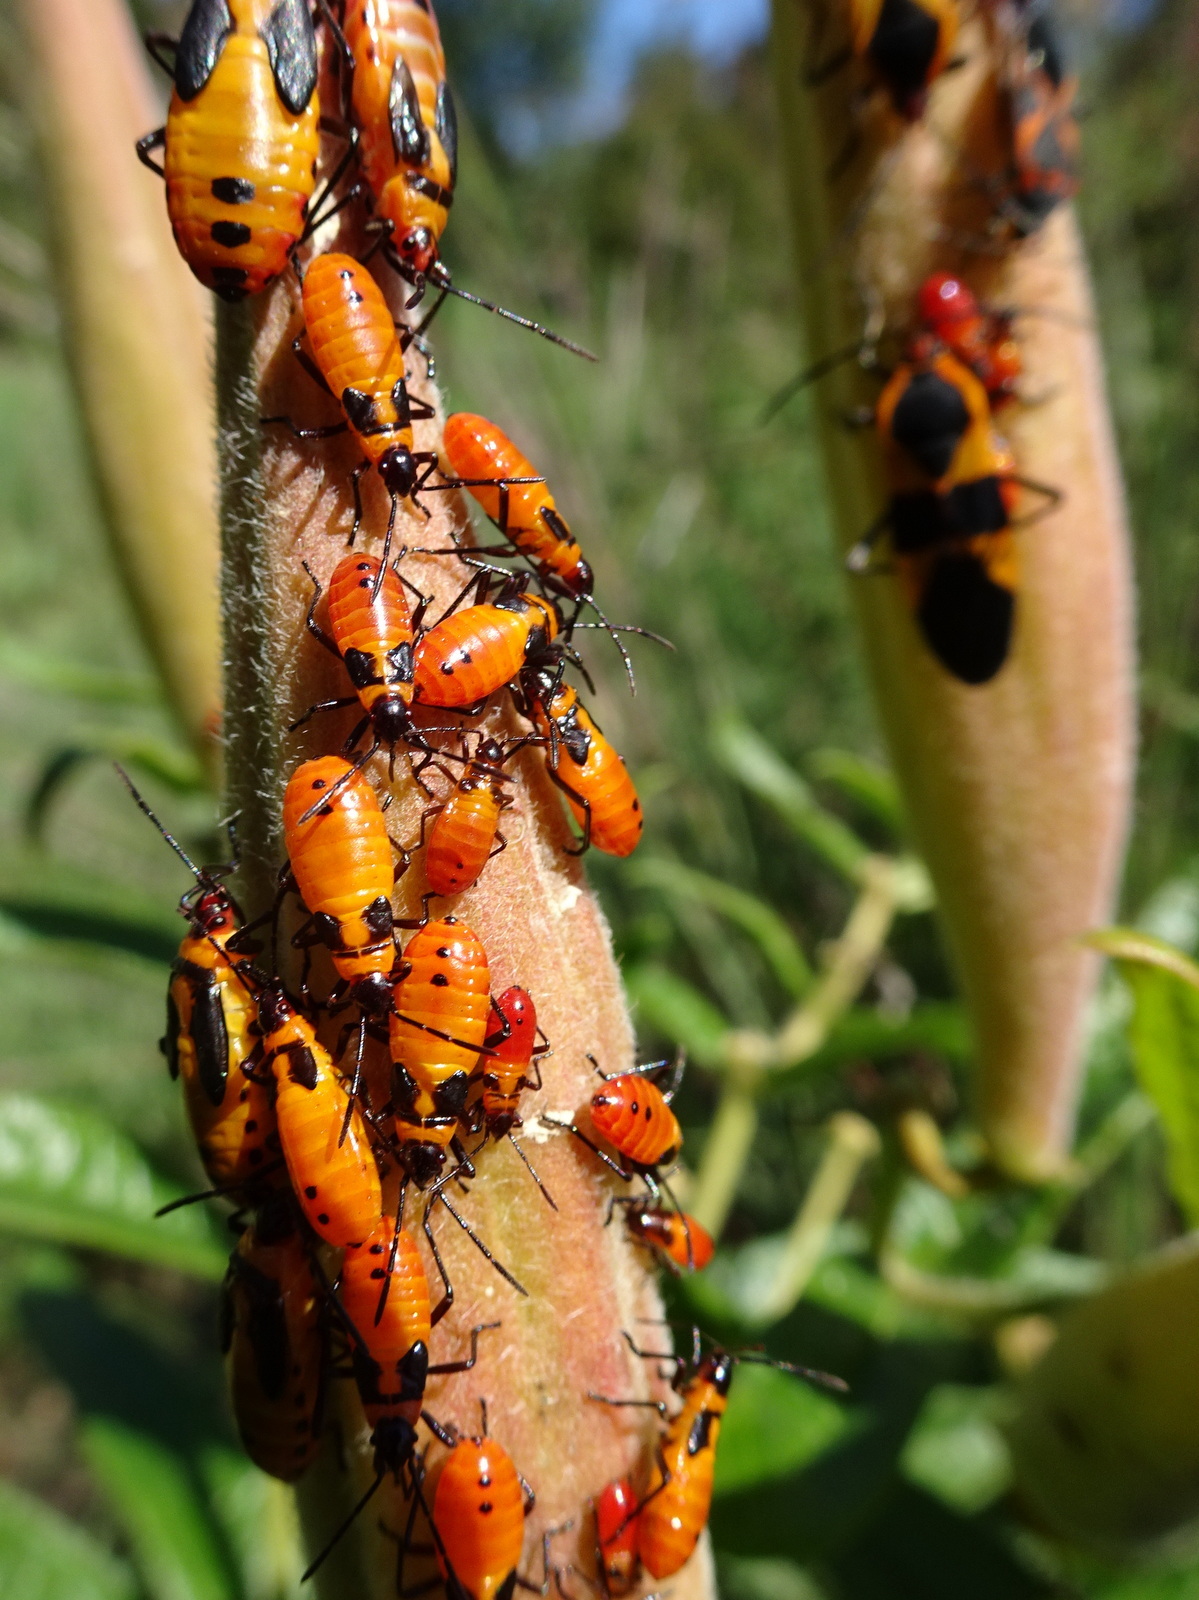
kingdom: Animalia
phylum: Arthropoda
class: Insecta
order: Hemiptera
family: Lygaeidae
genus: Oncopeltus
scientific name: Oncopeltus fasciatus
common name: Large milkweed bug
